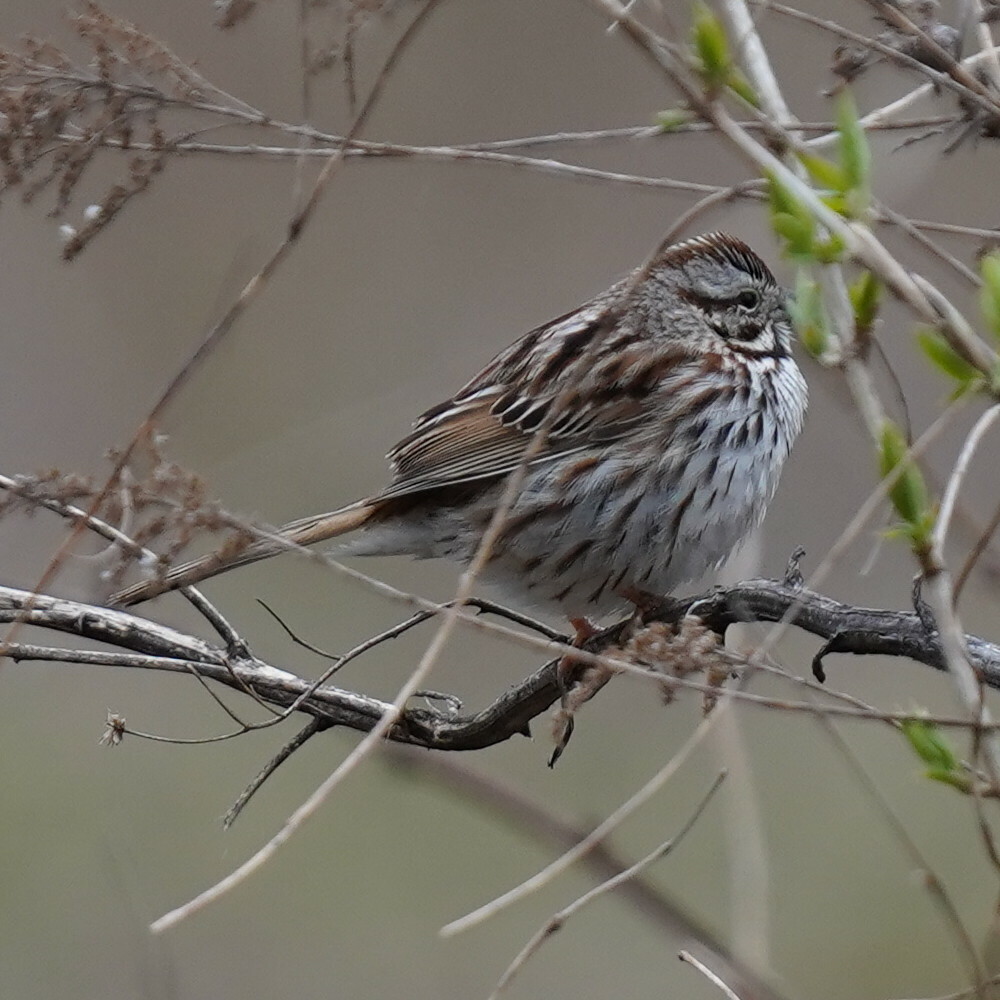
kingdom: Animalia
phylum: Chordata
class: Aves
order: Passeriformes
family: Passerellidae
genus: Melospiza
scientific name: Melospiza melodia
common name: Song sparrow
